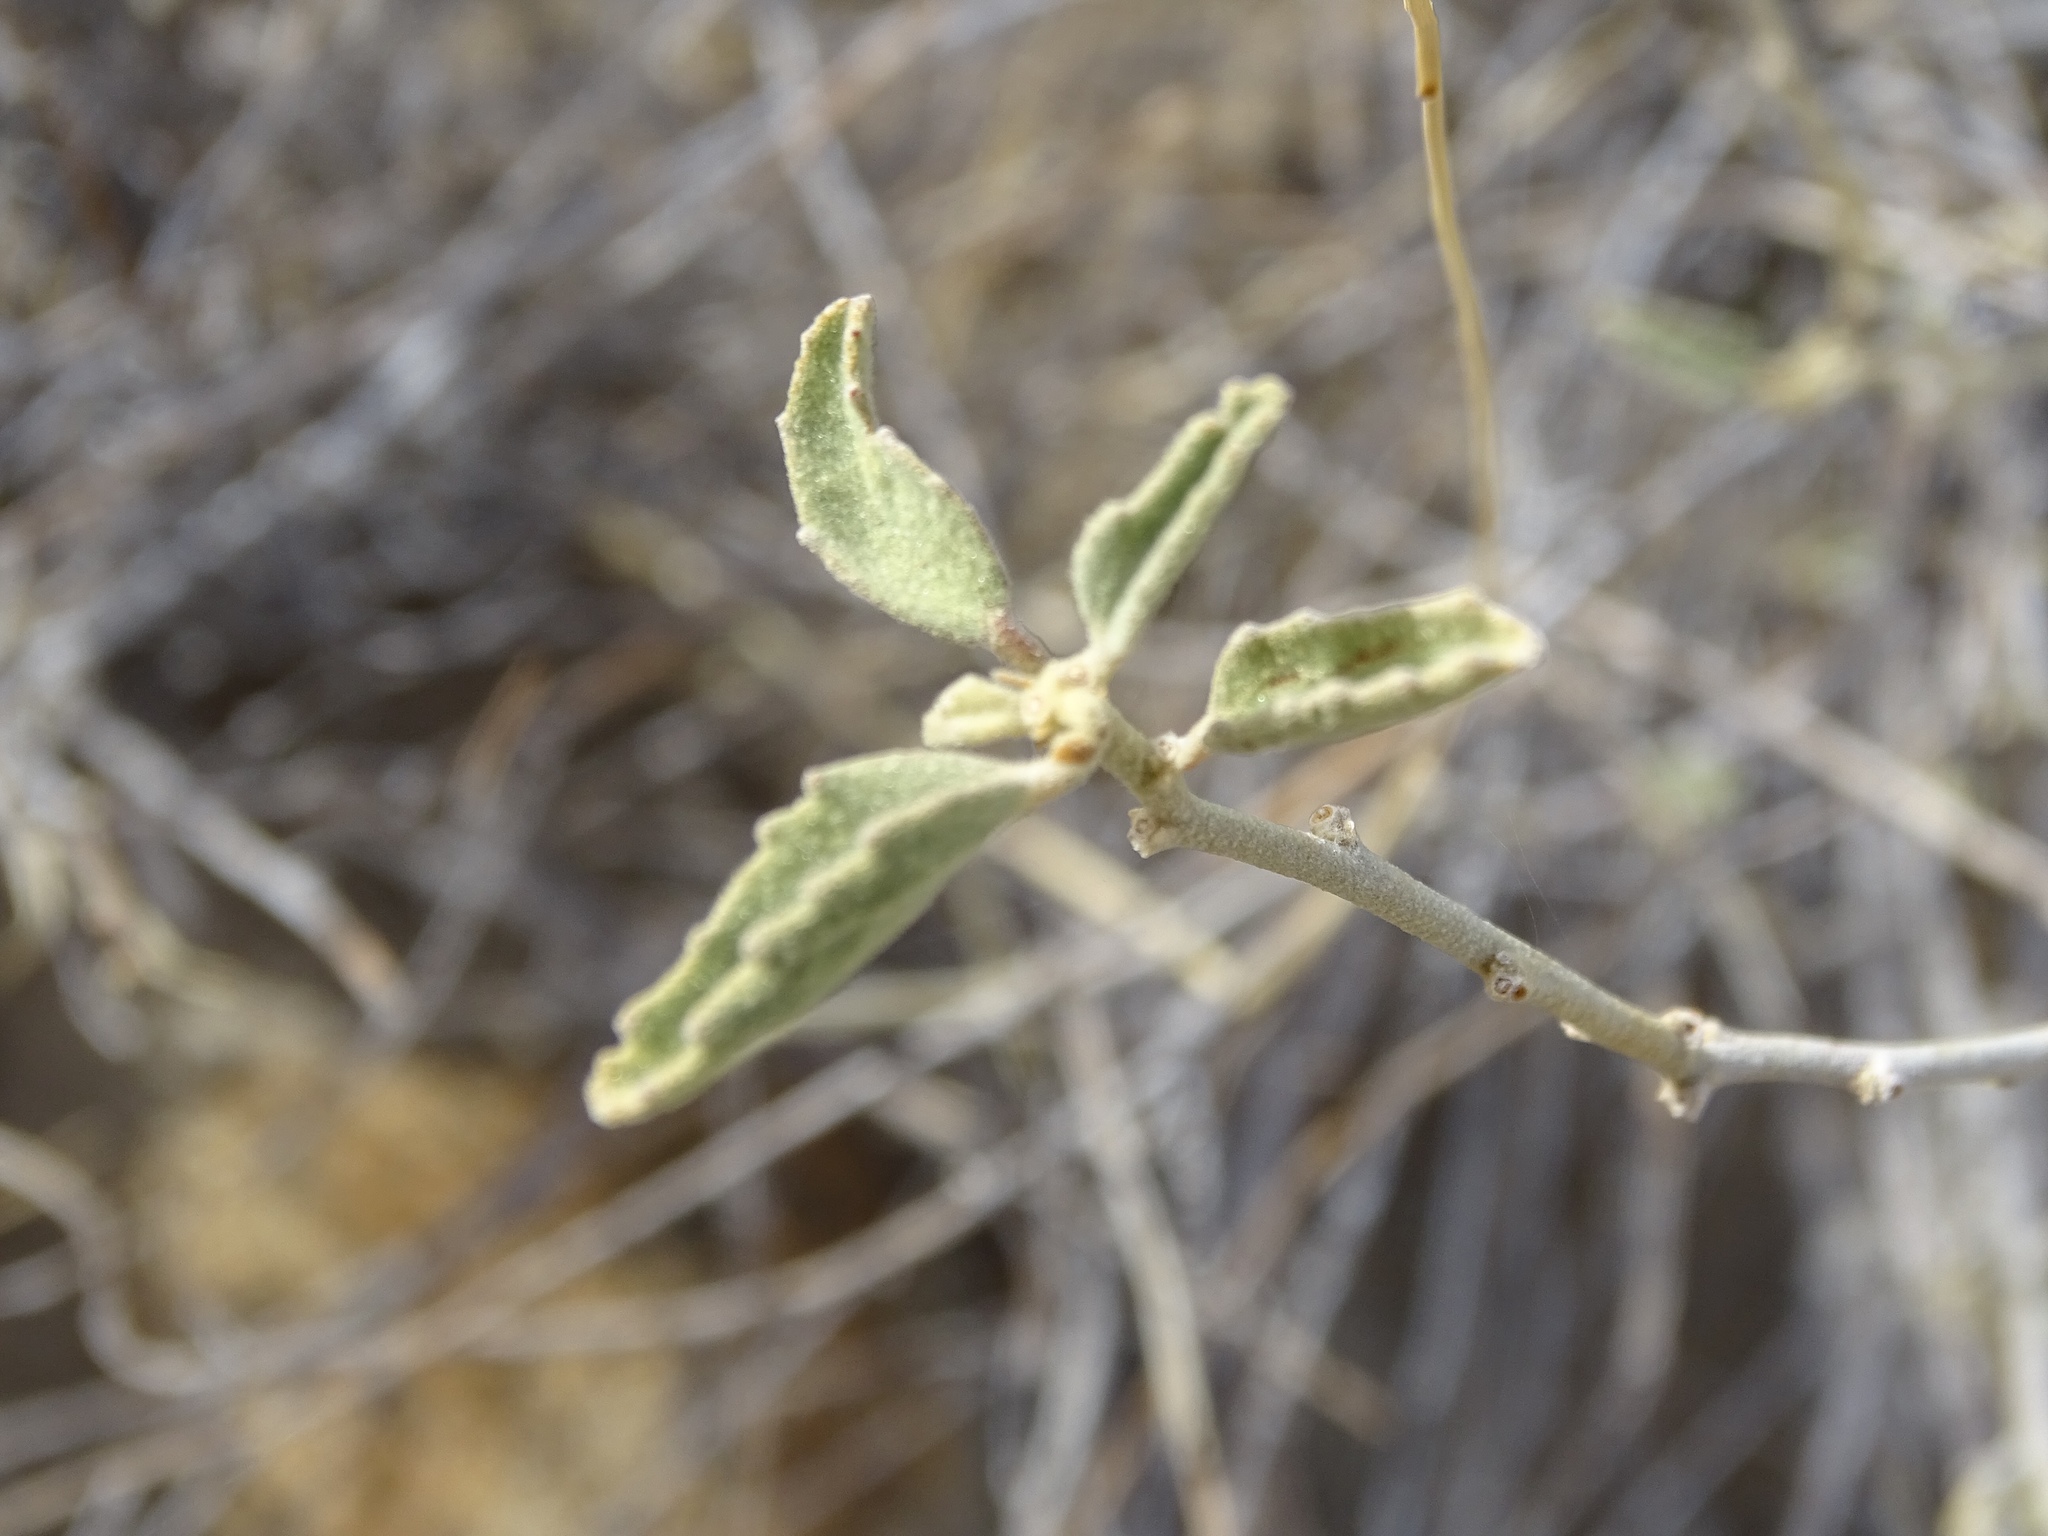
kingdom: Plantae
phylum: Tracheophyta
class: Magnoliopsida
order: Malvales
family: Malvaceae
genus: Hibiscus
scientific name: Hibiscus denudatus
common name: Paleface
